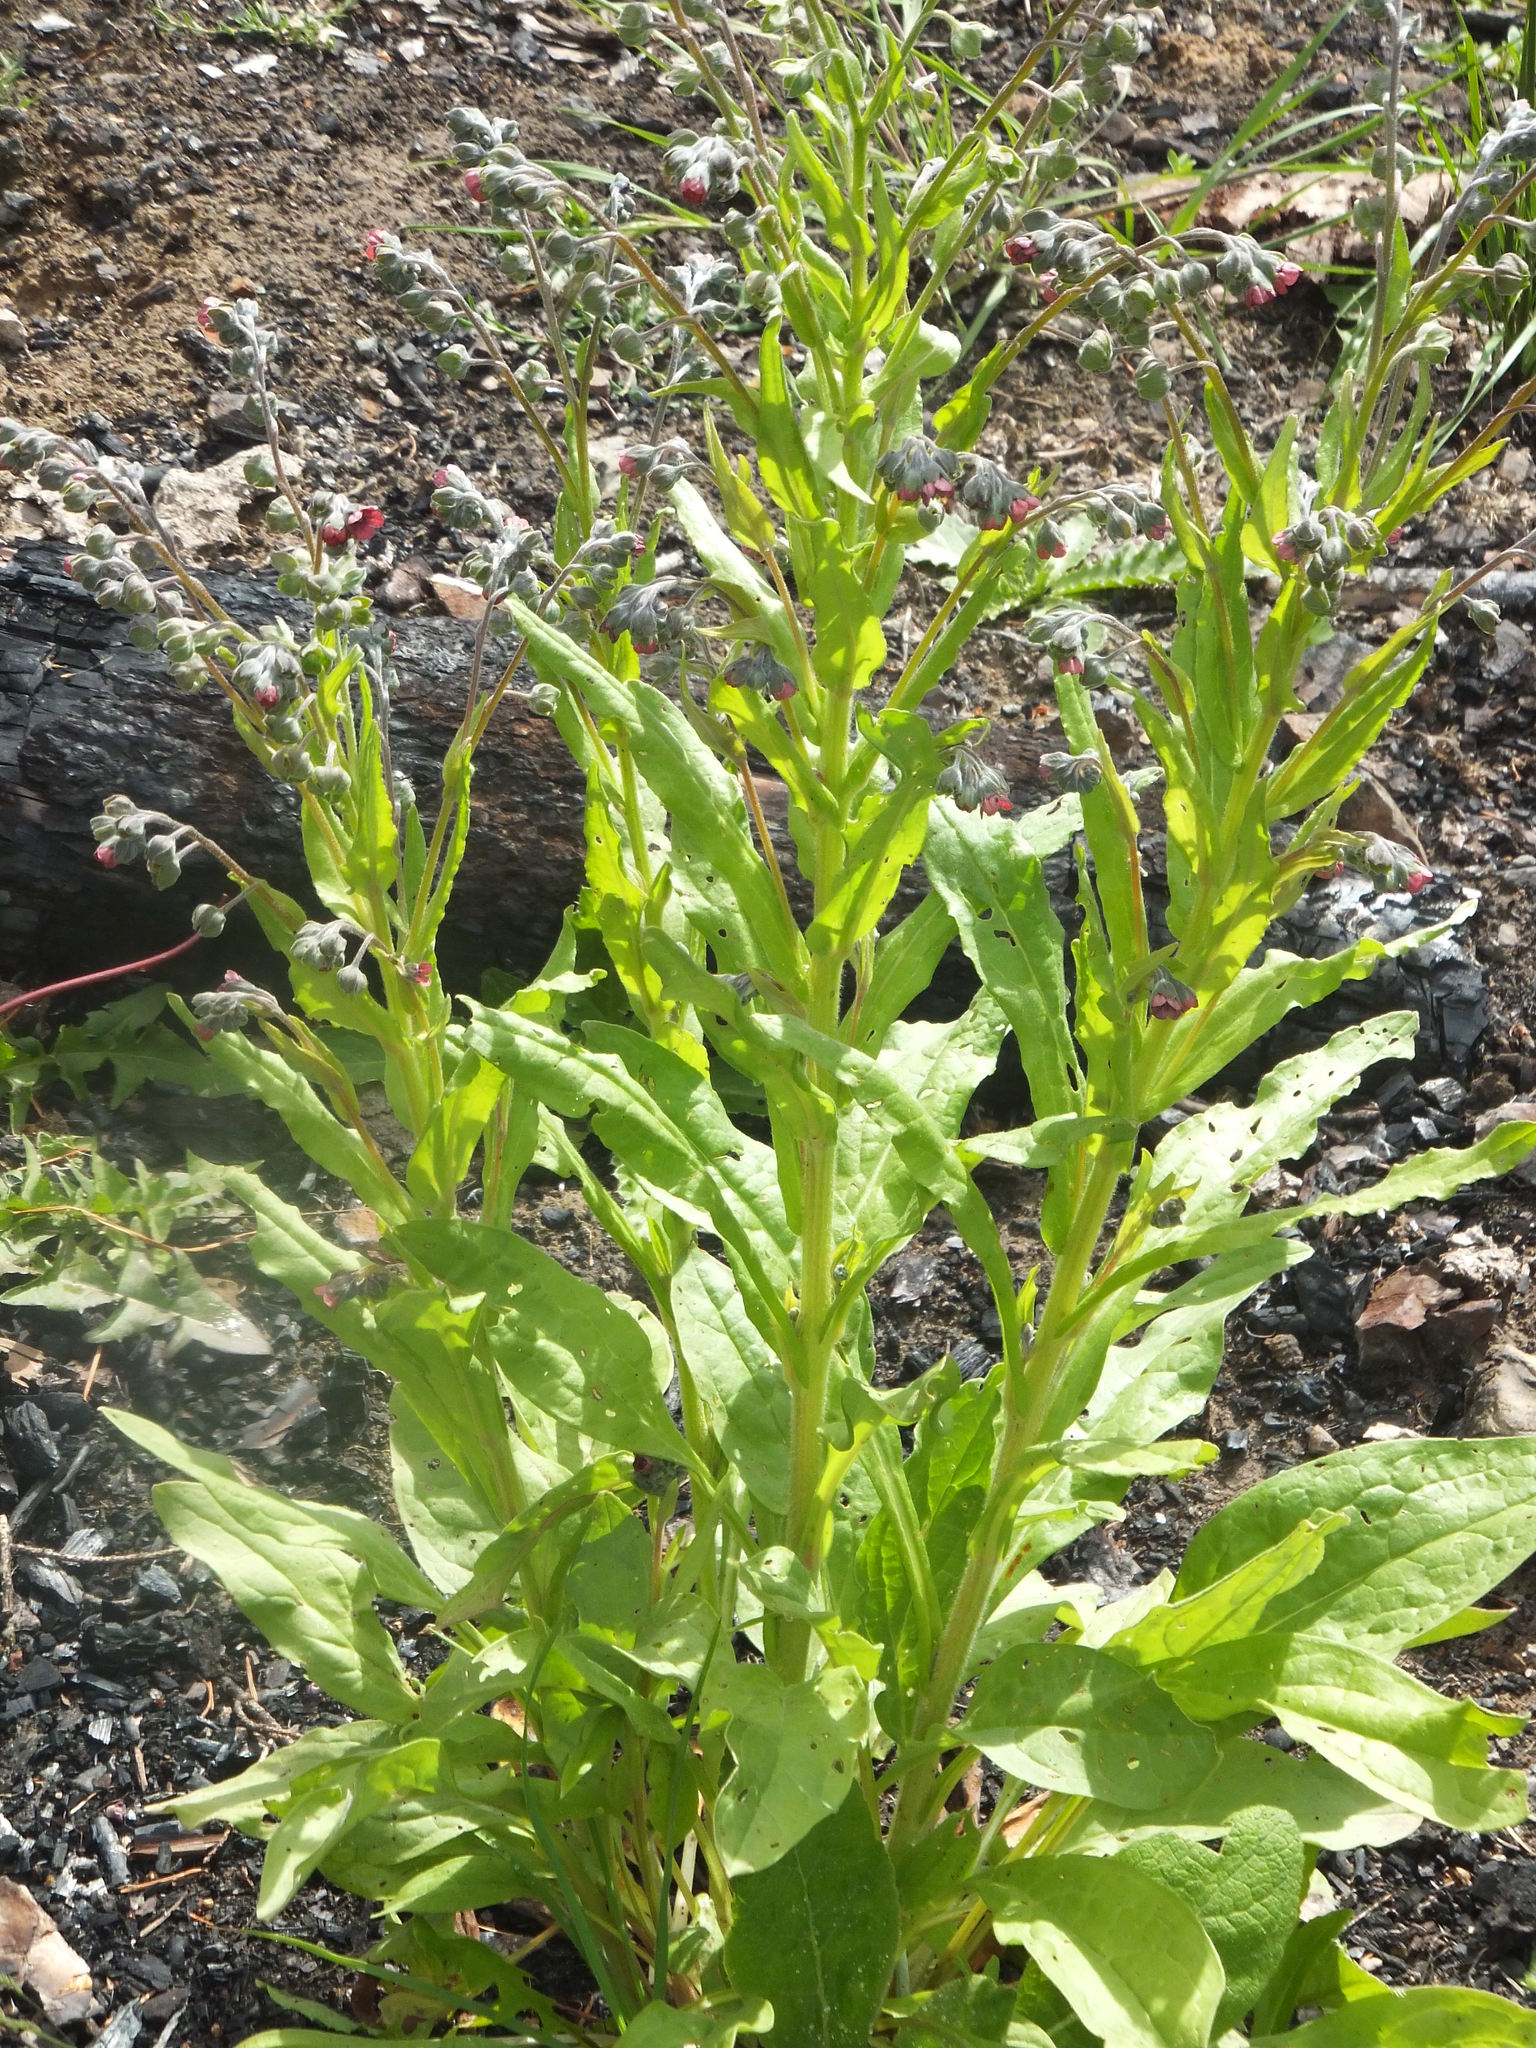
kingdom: Plantae
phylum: Tracheophyta
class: Magnoliopsida
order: Boraginales
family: Boraginaceae
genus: Cynoglossum
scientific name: Cynoglossum officinale
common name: Hound's-tongue
